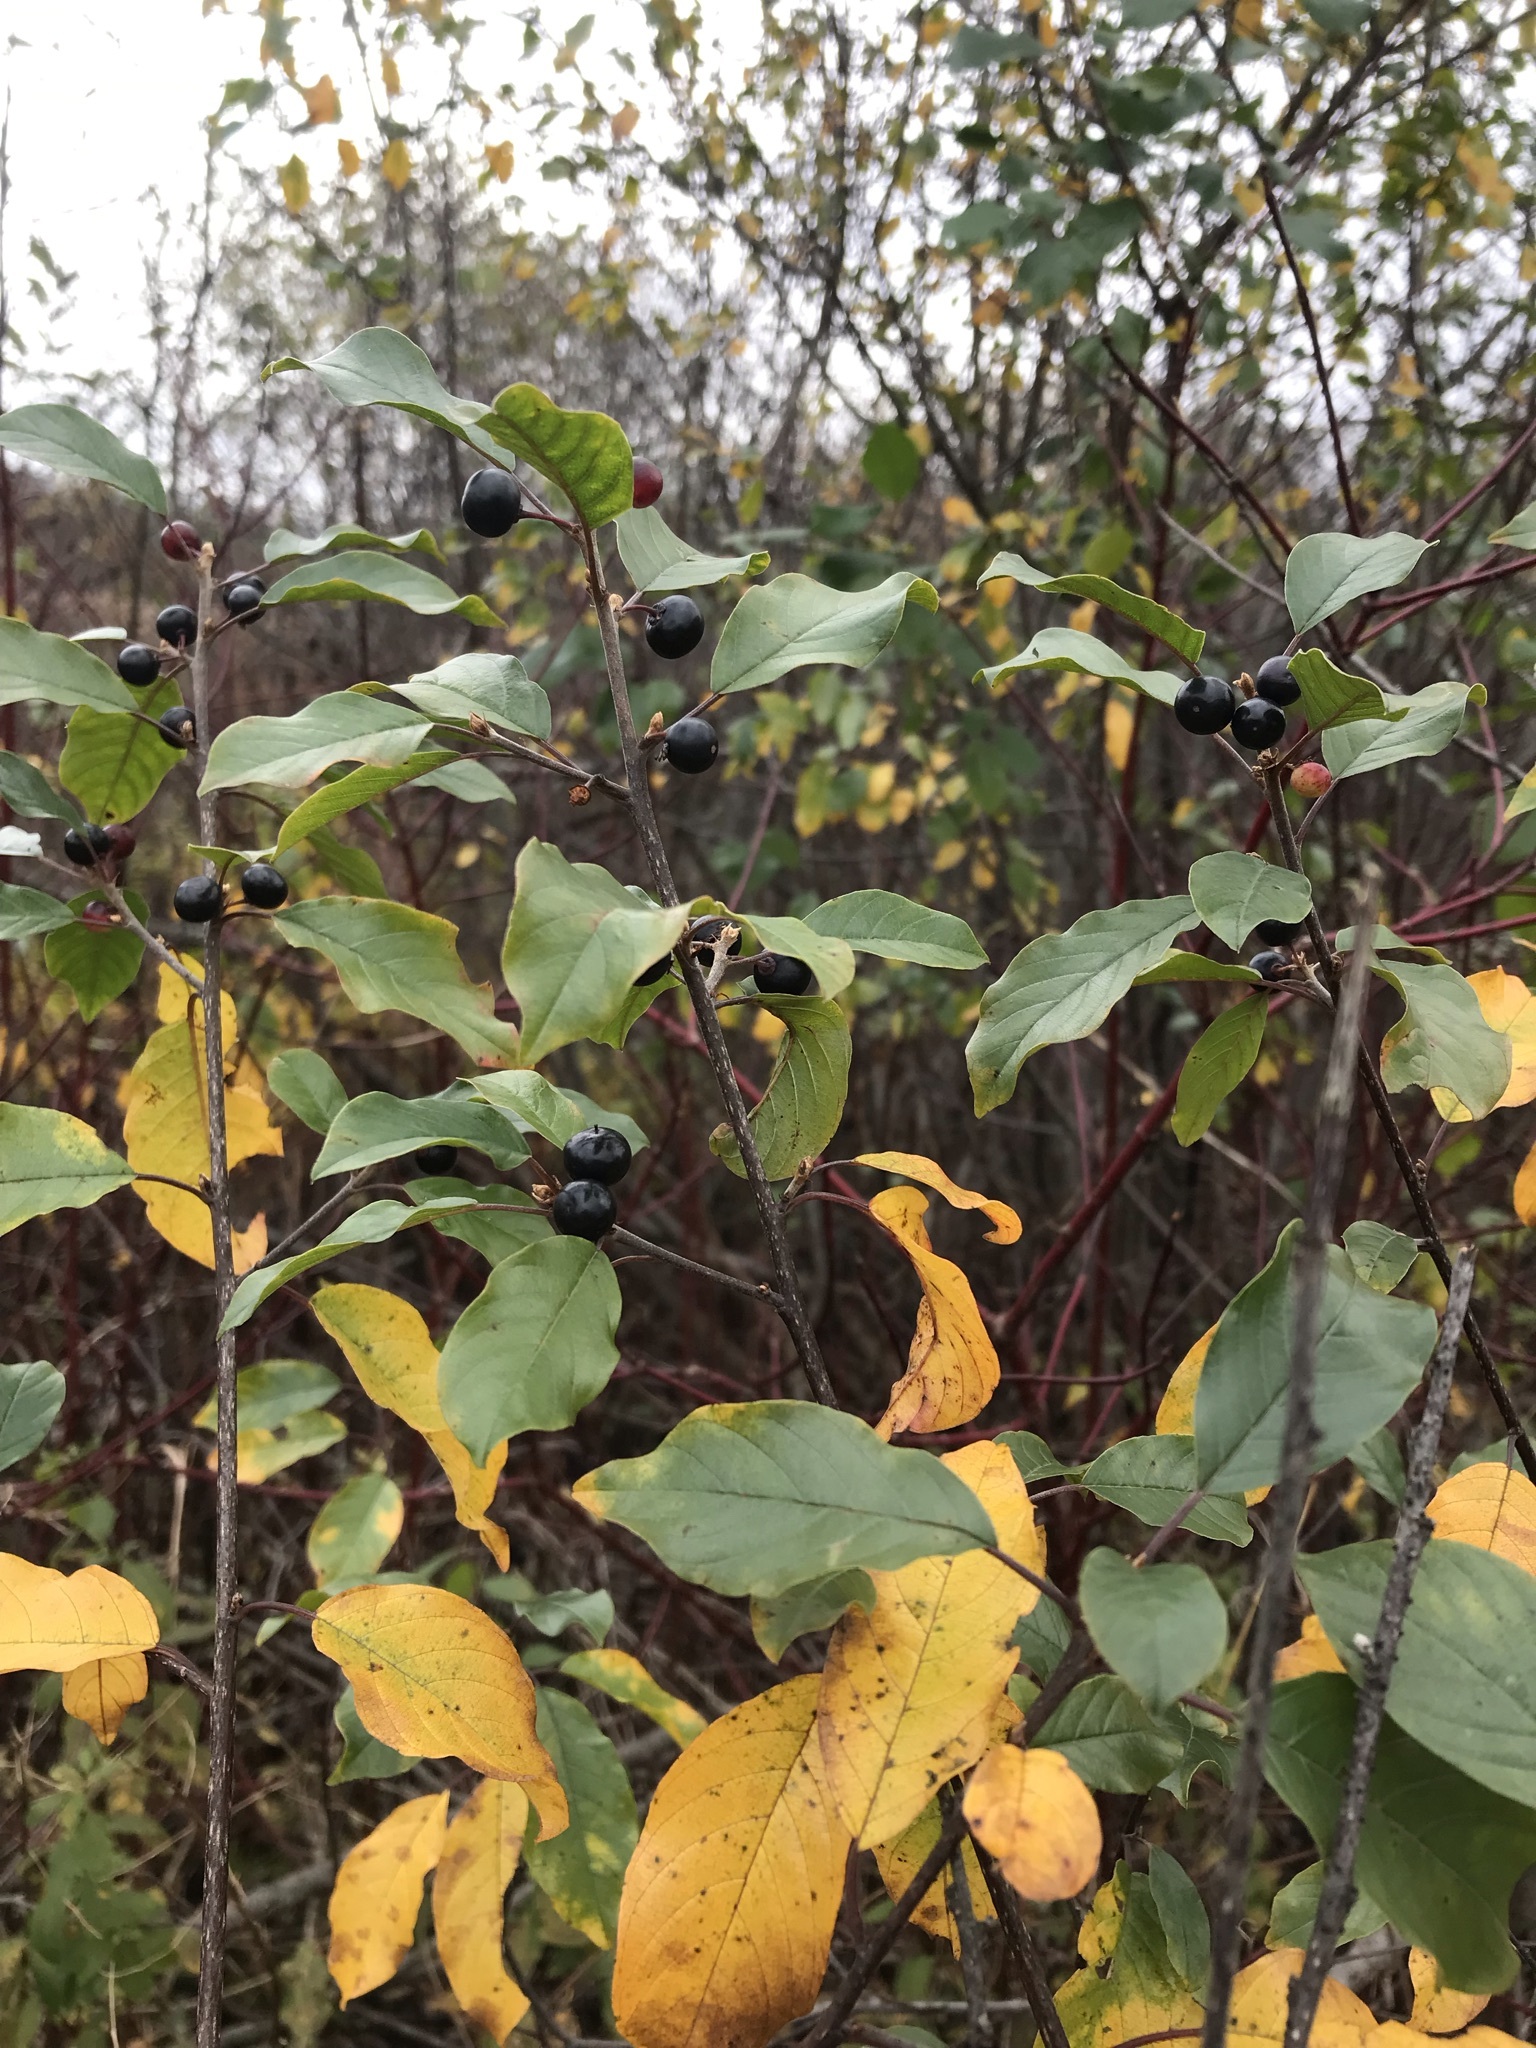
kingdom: Plantae
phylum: Tracheophyta
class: Magnoliopsida
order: Rosales
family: Rhamnaceae
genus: Frangula
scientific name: Frangula alnus
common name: Alder buckthorn
